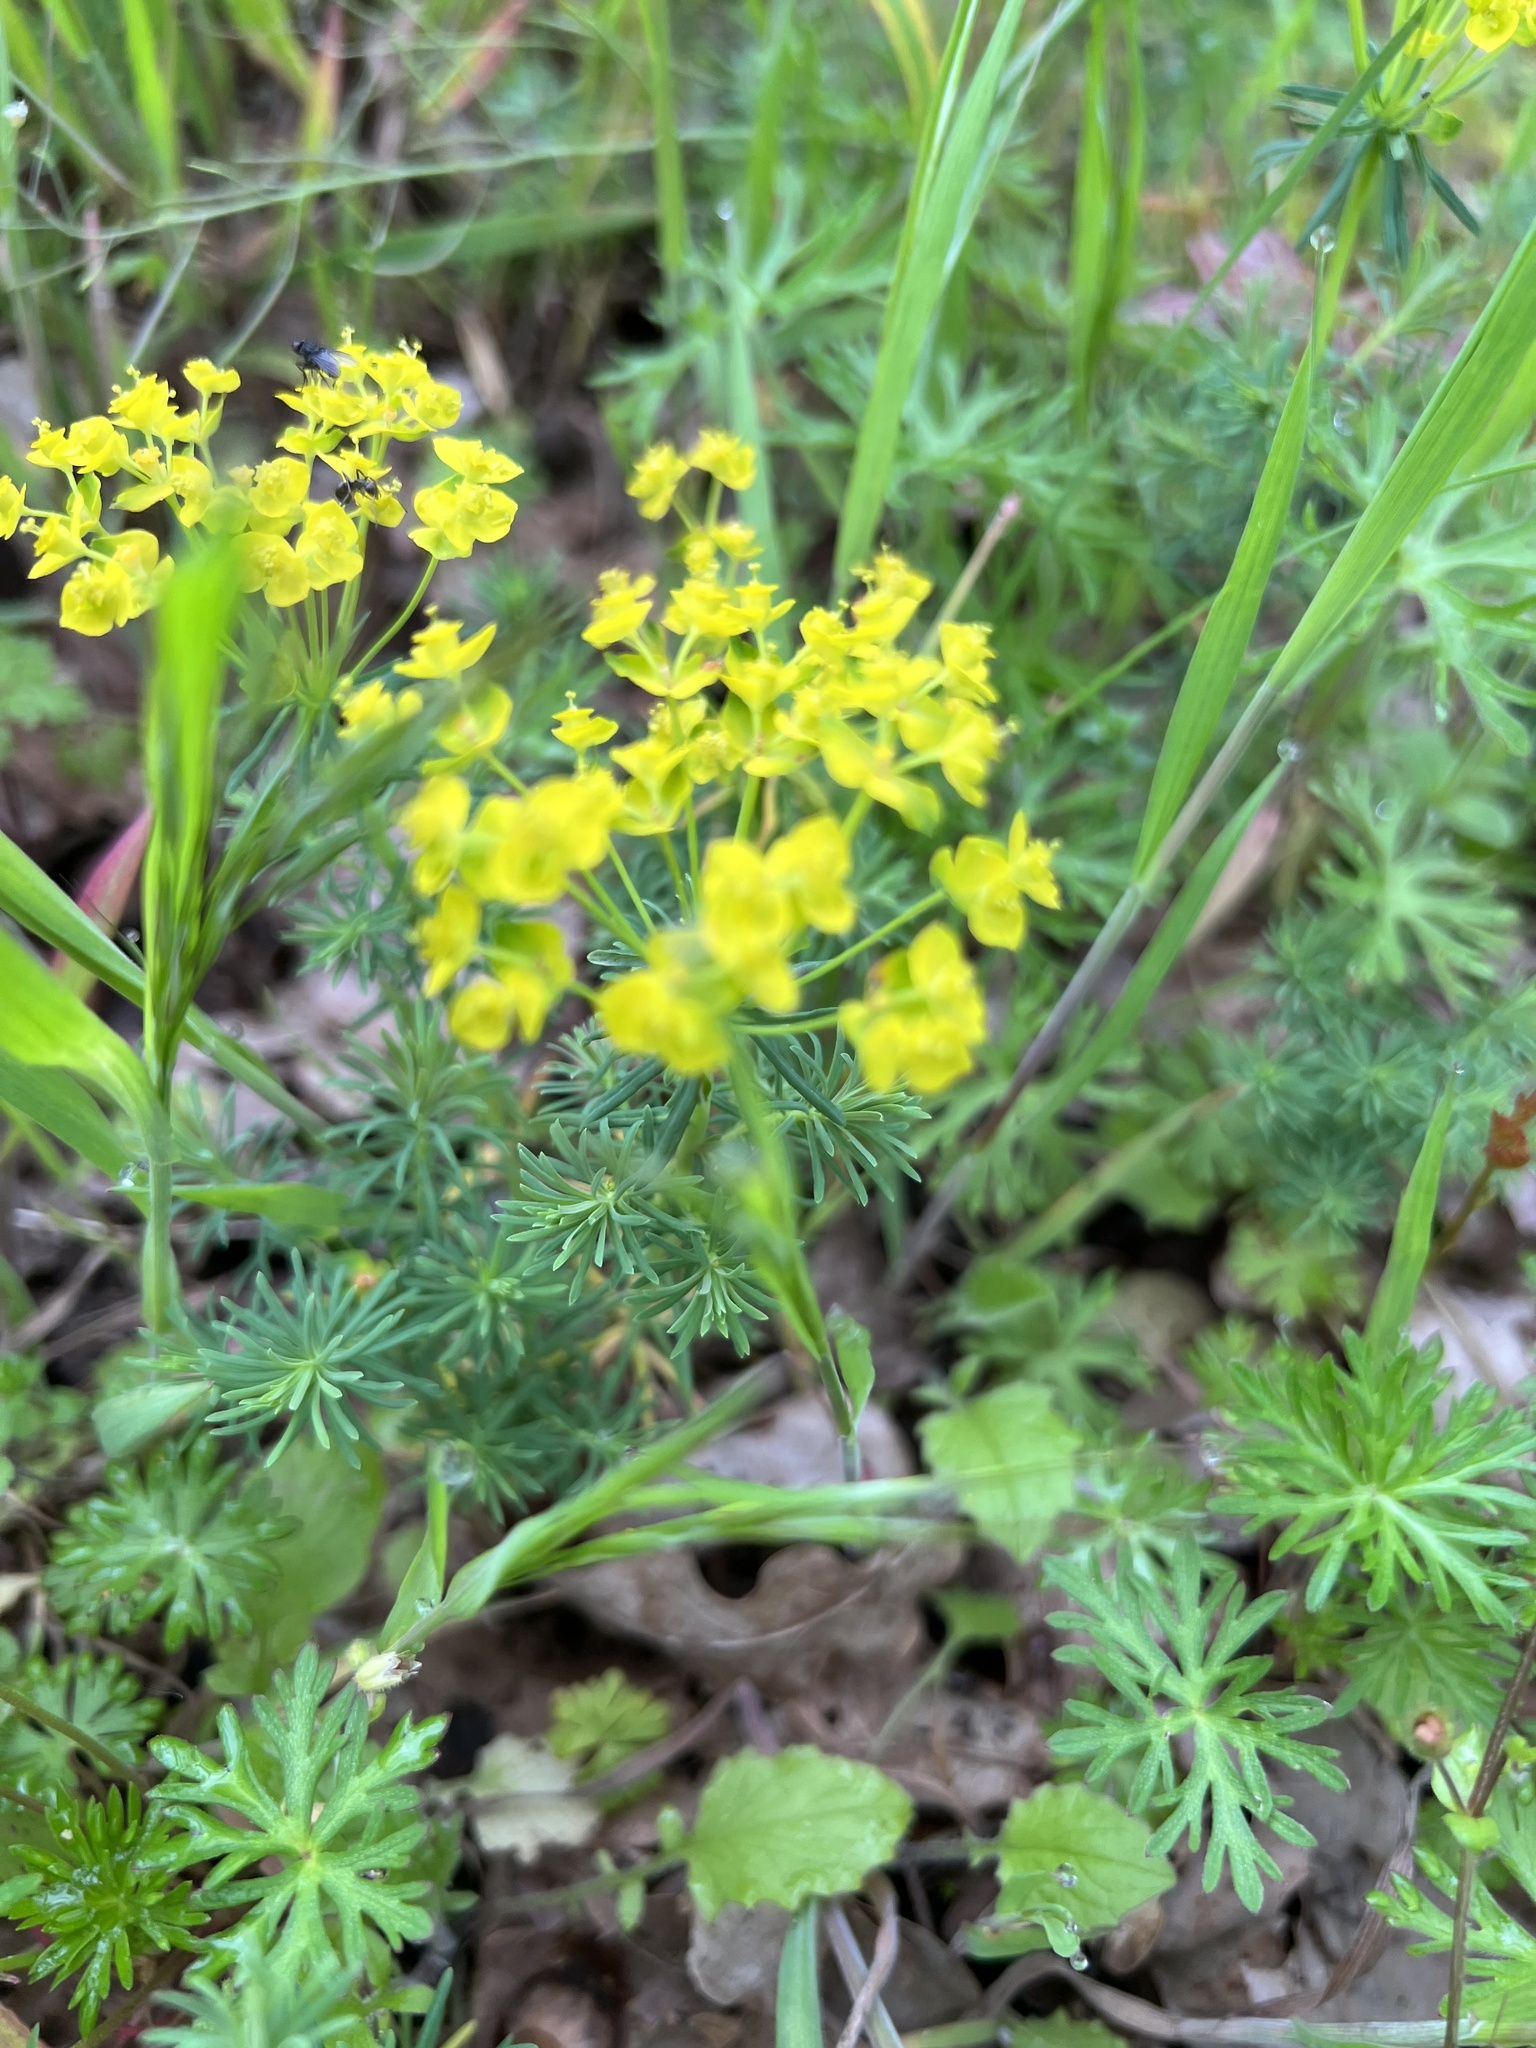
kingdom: Plantae
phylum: Tracheophyta
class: Magnoliopsida
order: Malpighiales
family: Euphorbiaceae
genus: Euphorbia
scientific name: Euphorbia cyparissias
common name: Cypress spurge
